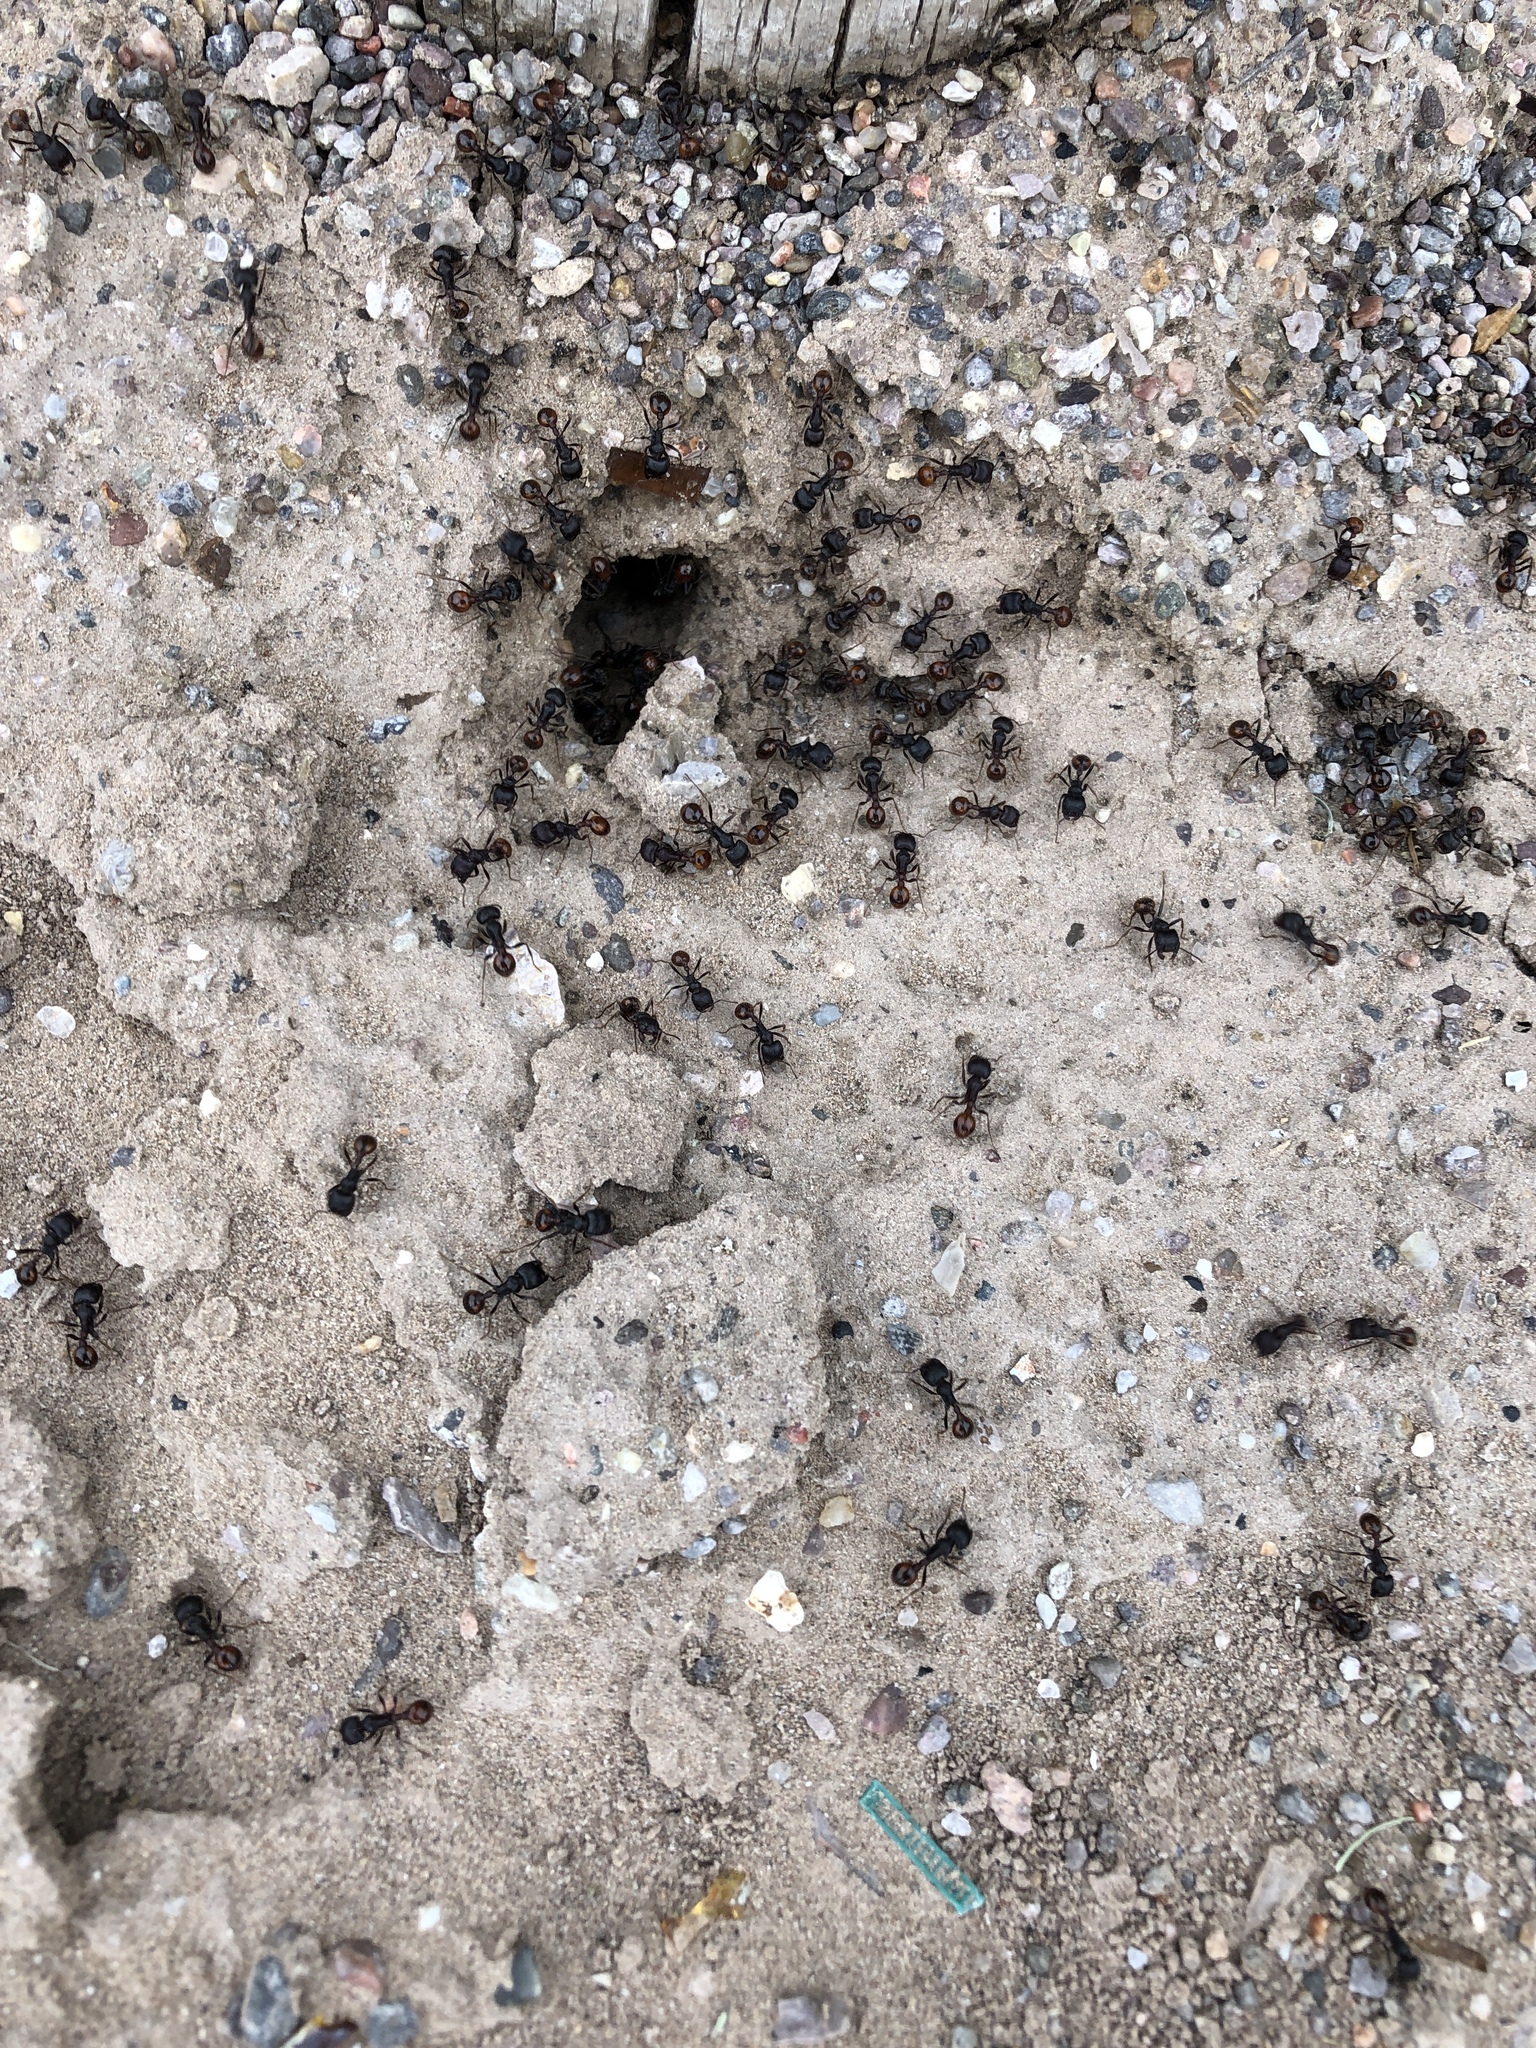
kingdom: Animalia
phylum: Arthropoda
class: Insecta
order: Hymenoptera
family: Formicidae
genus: Pogonomyrmex
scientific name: Pogonomyrmex rugosus
